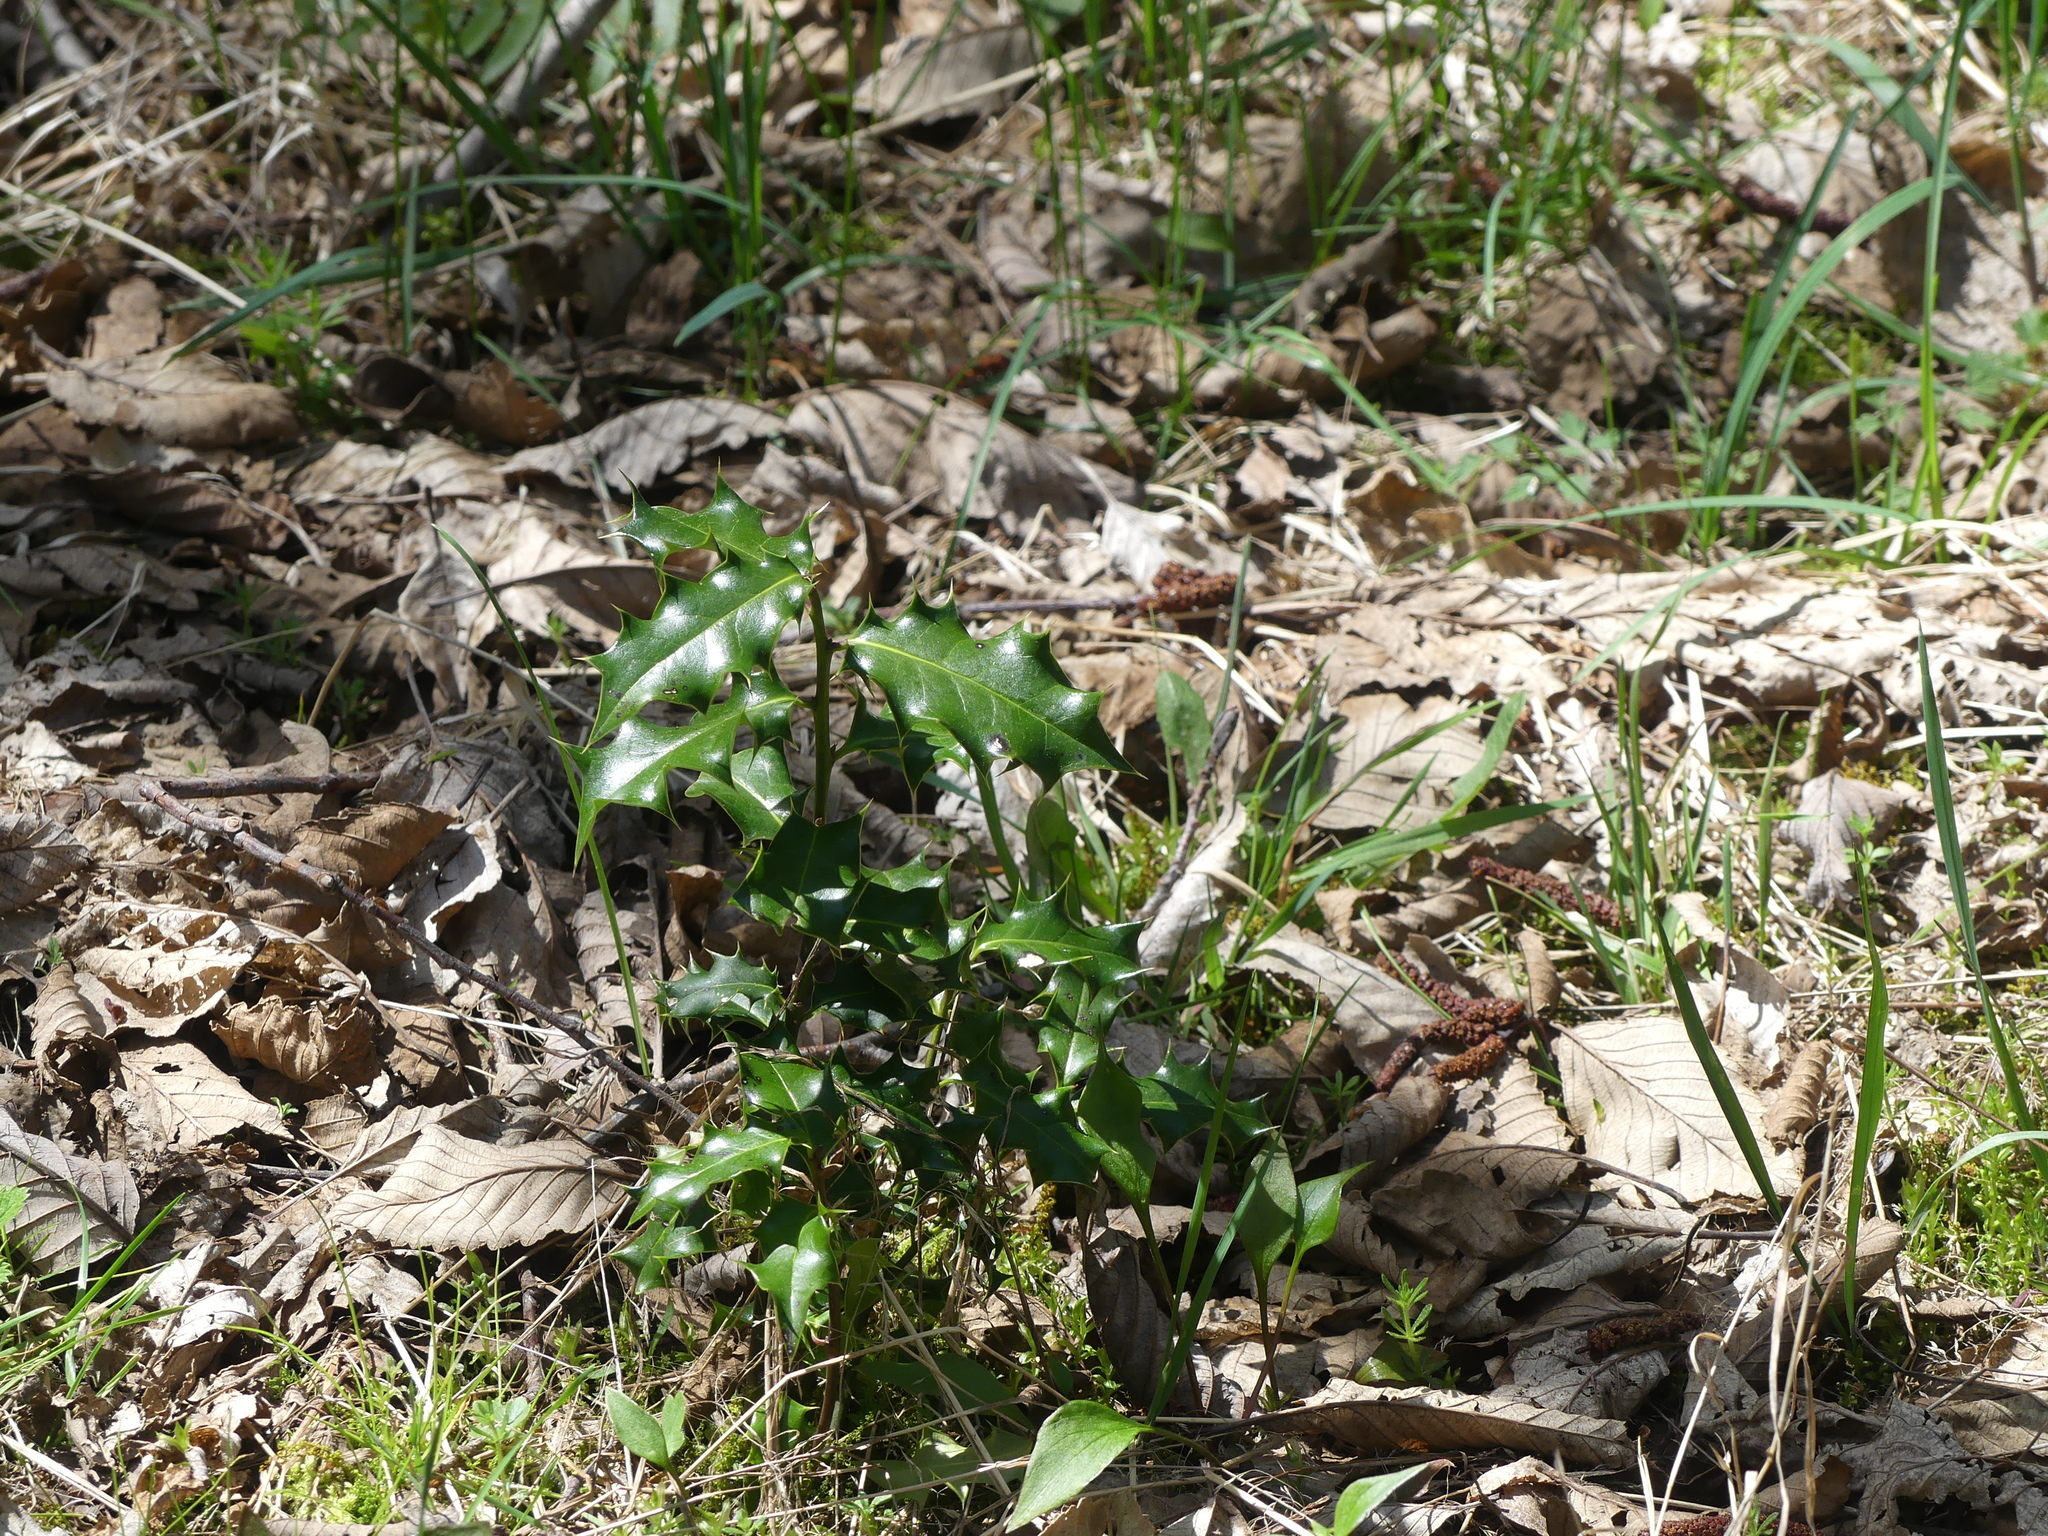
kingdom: Plantae
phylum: Tracheophyta
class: Magnoliopsida
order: Aquifoliales
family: Aquifoliaceae
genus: Ilex
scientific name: Ilex aquifolium
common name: English holly
